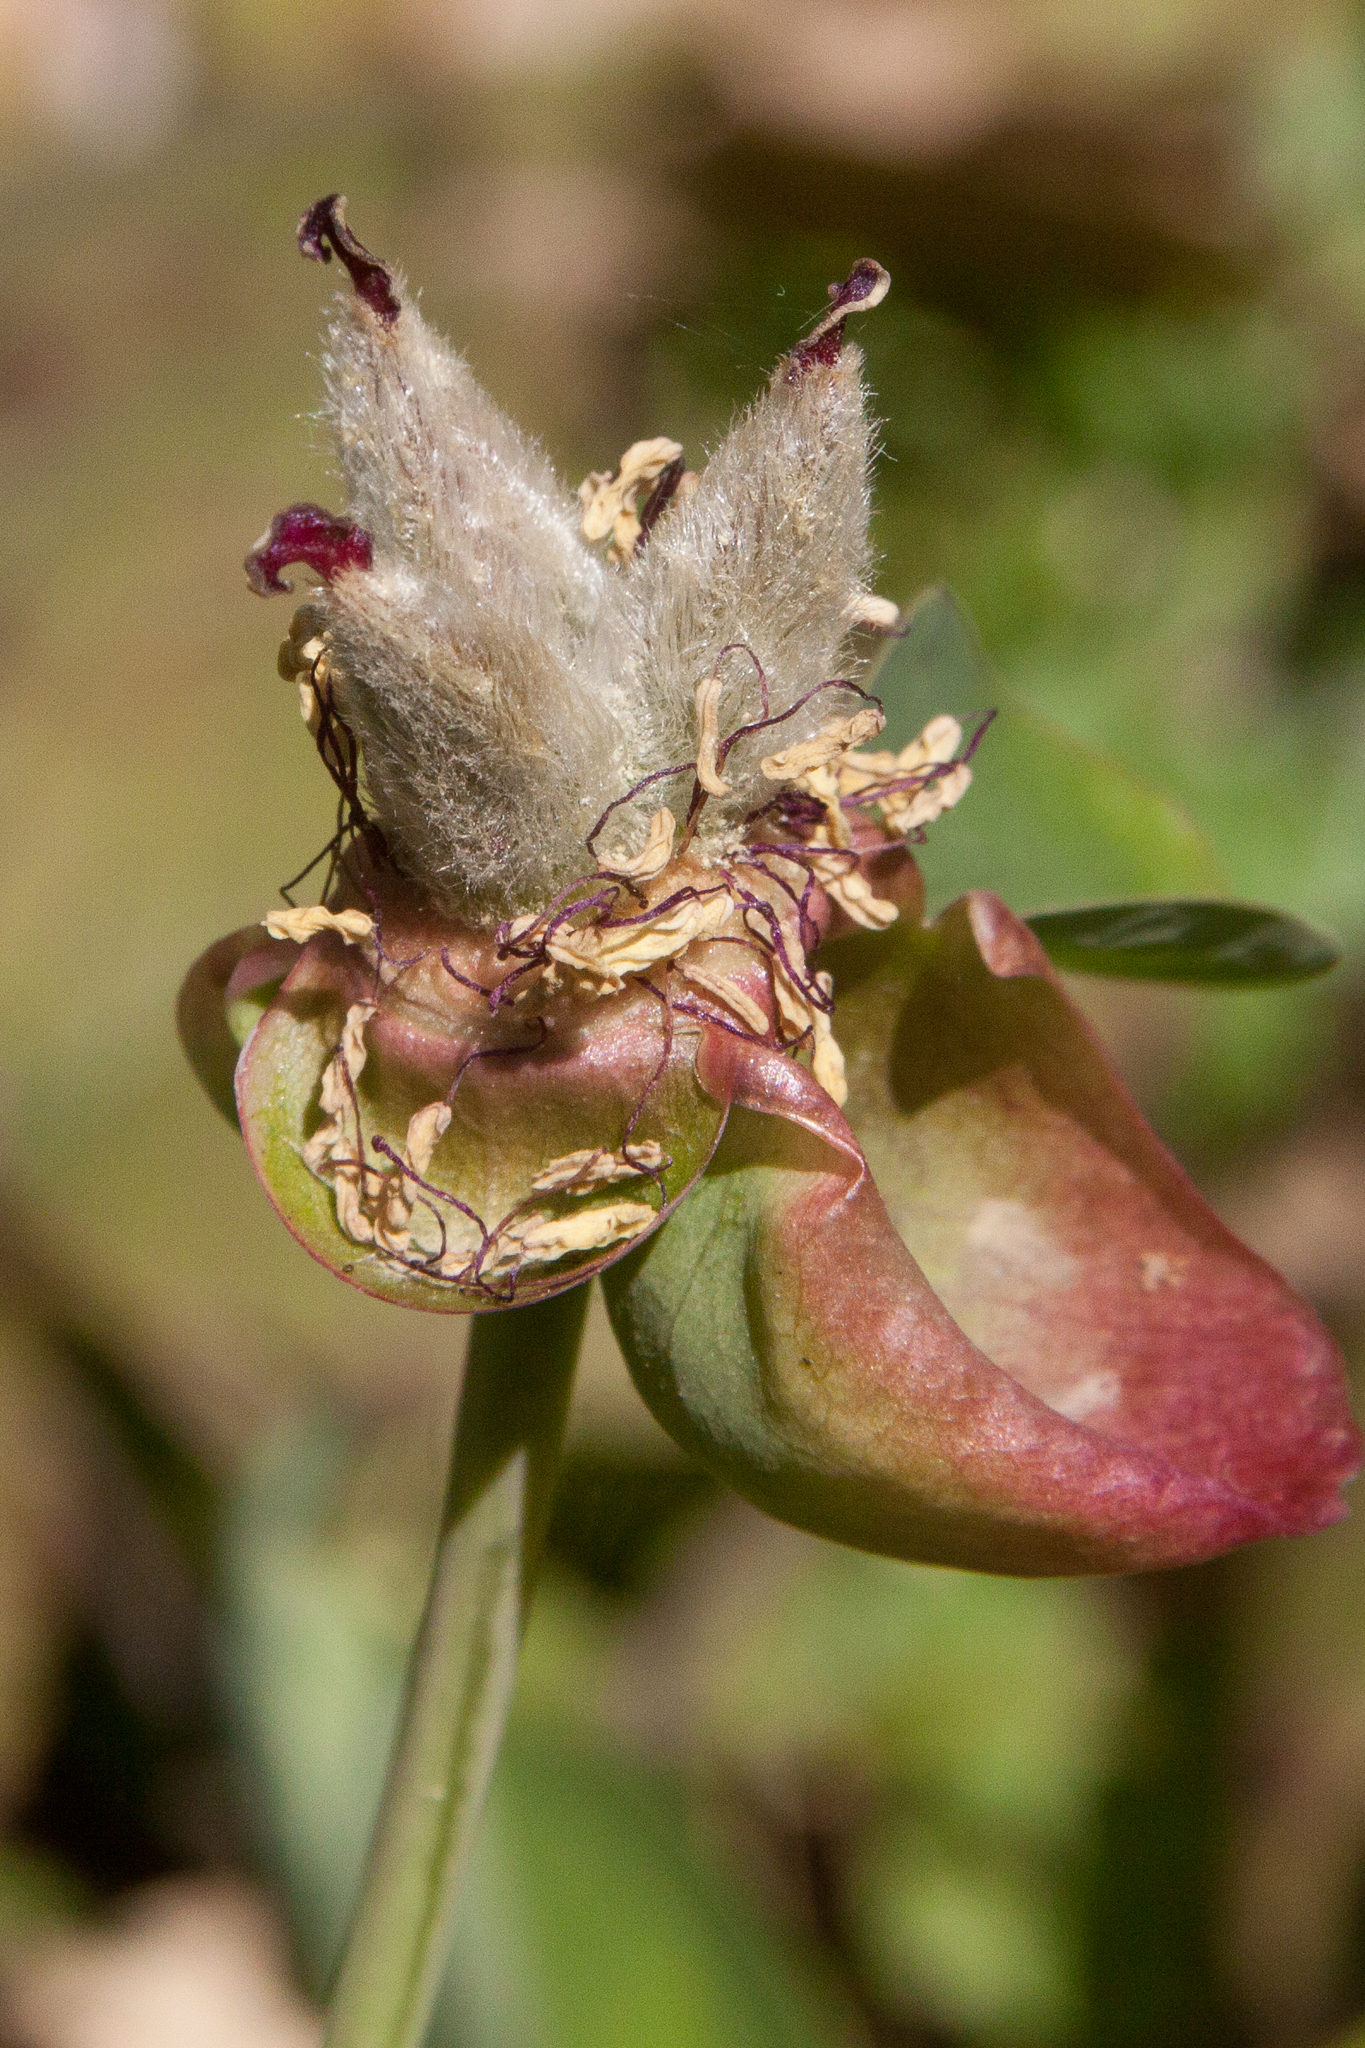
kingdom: Plantae
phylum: Tracheophyta
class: Magnoliopsida
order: Saxifragales
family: Paeoniaceae
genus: Paeonia
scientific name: Paeonia caucasica
